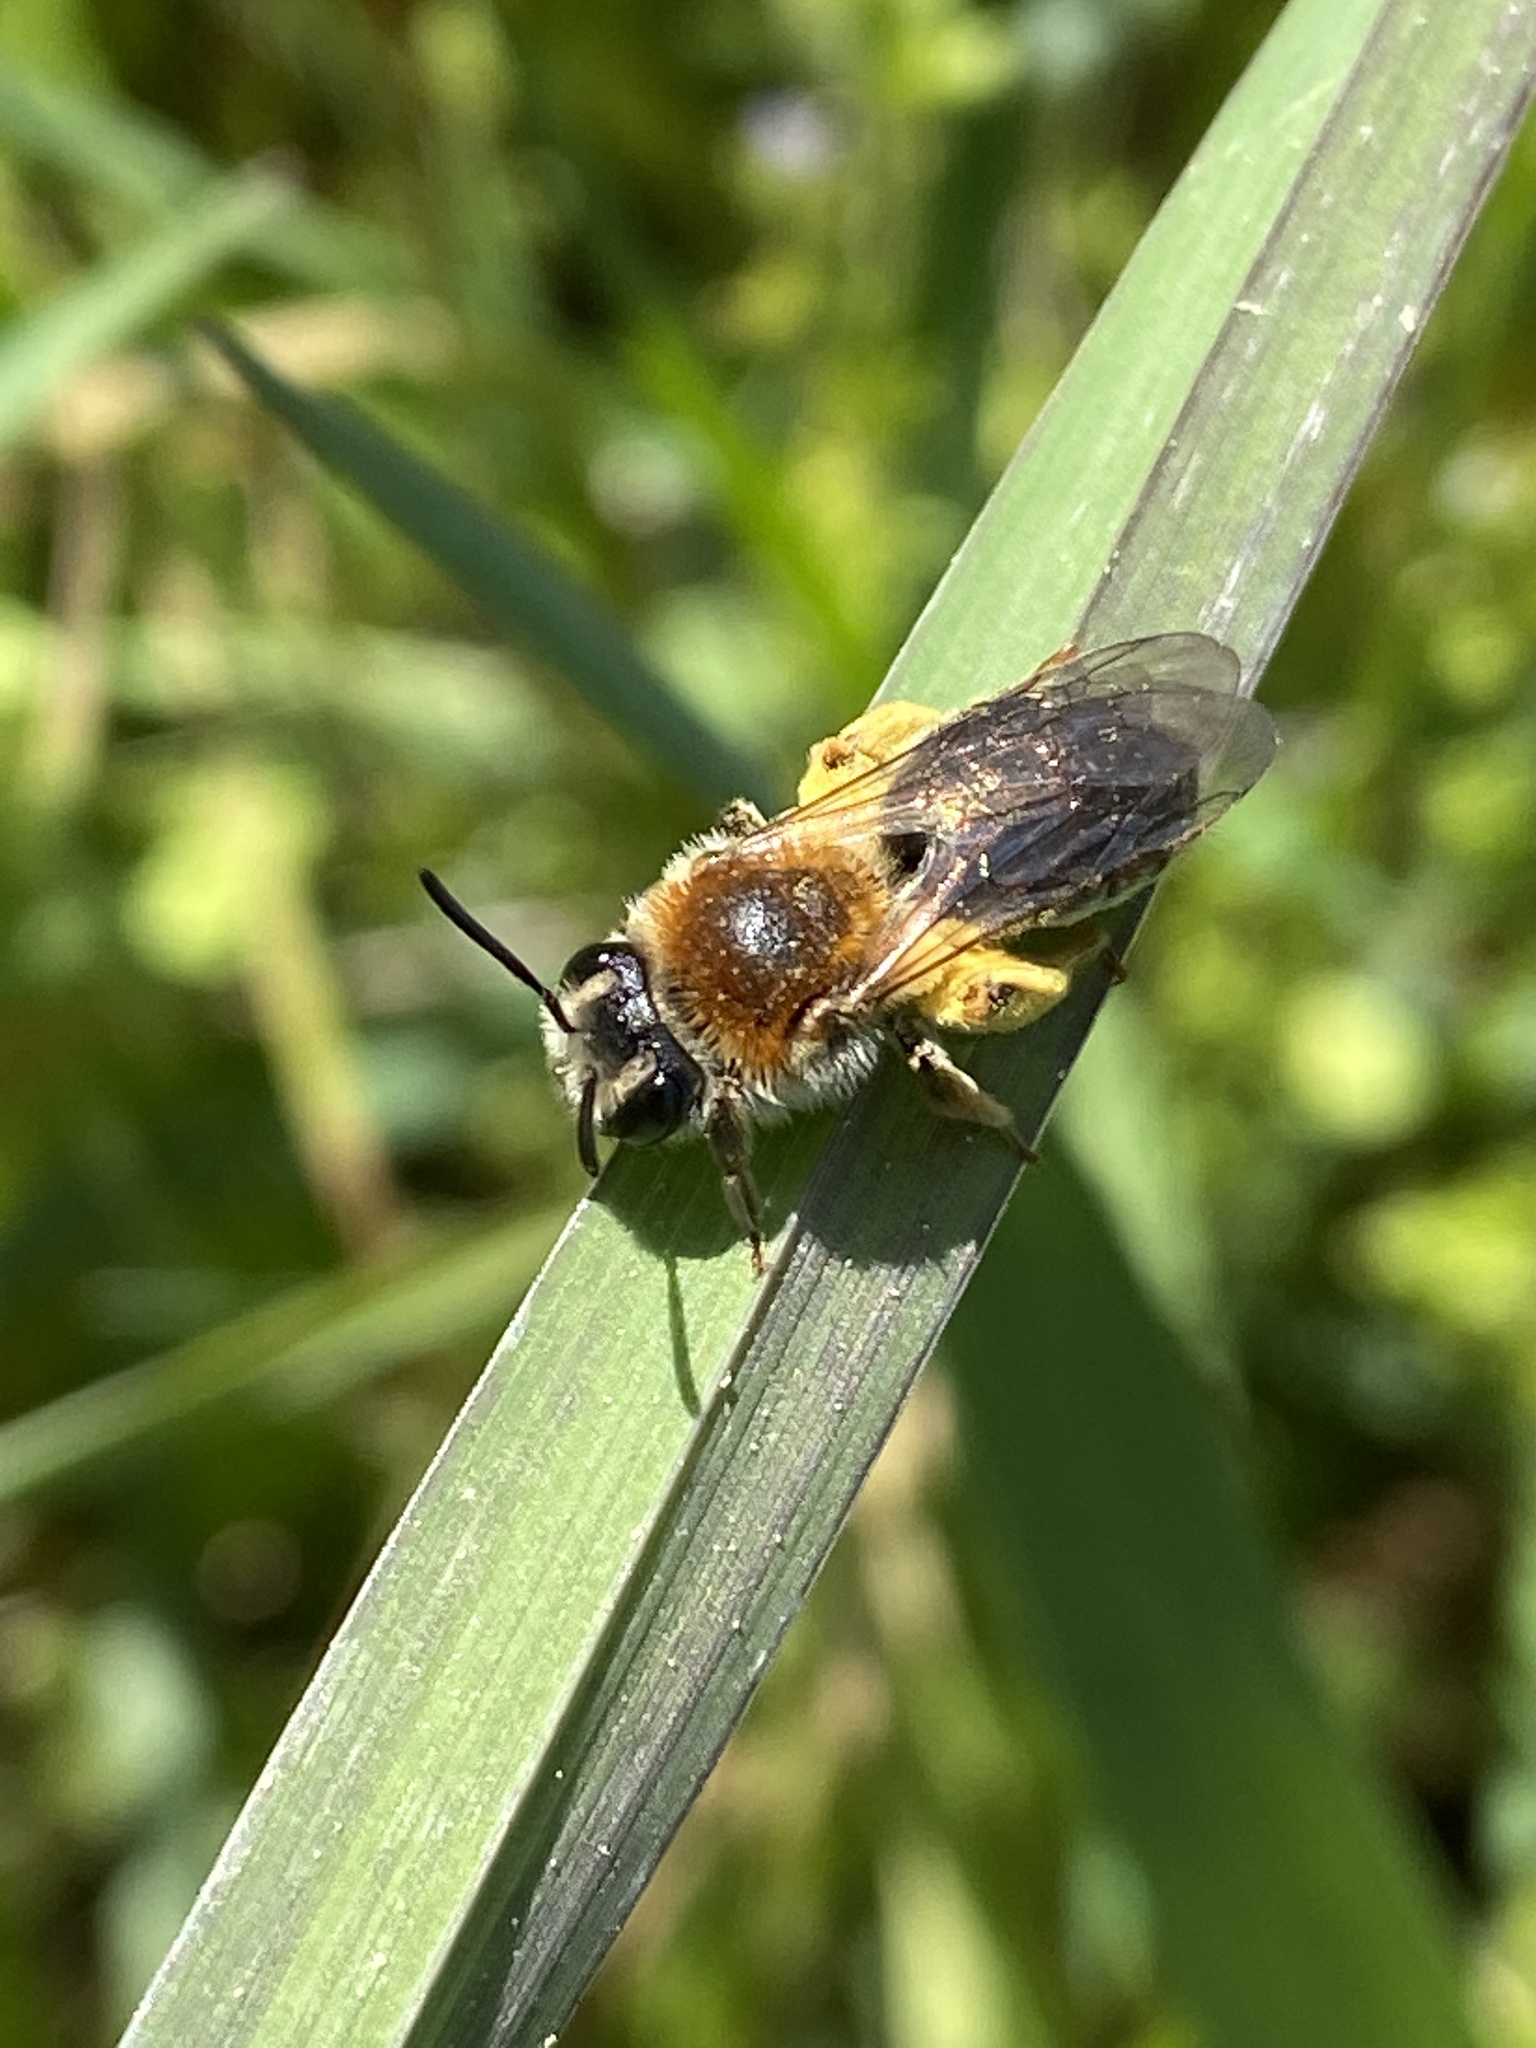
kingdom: Animalia
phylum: Arthropoda
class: Insecta
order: Hymenoptera
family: Andrenidae
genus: Andrena
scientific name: Andrena haemorrhoa
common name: Early mining bee
